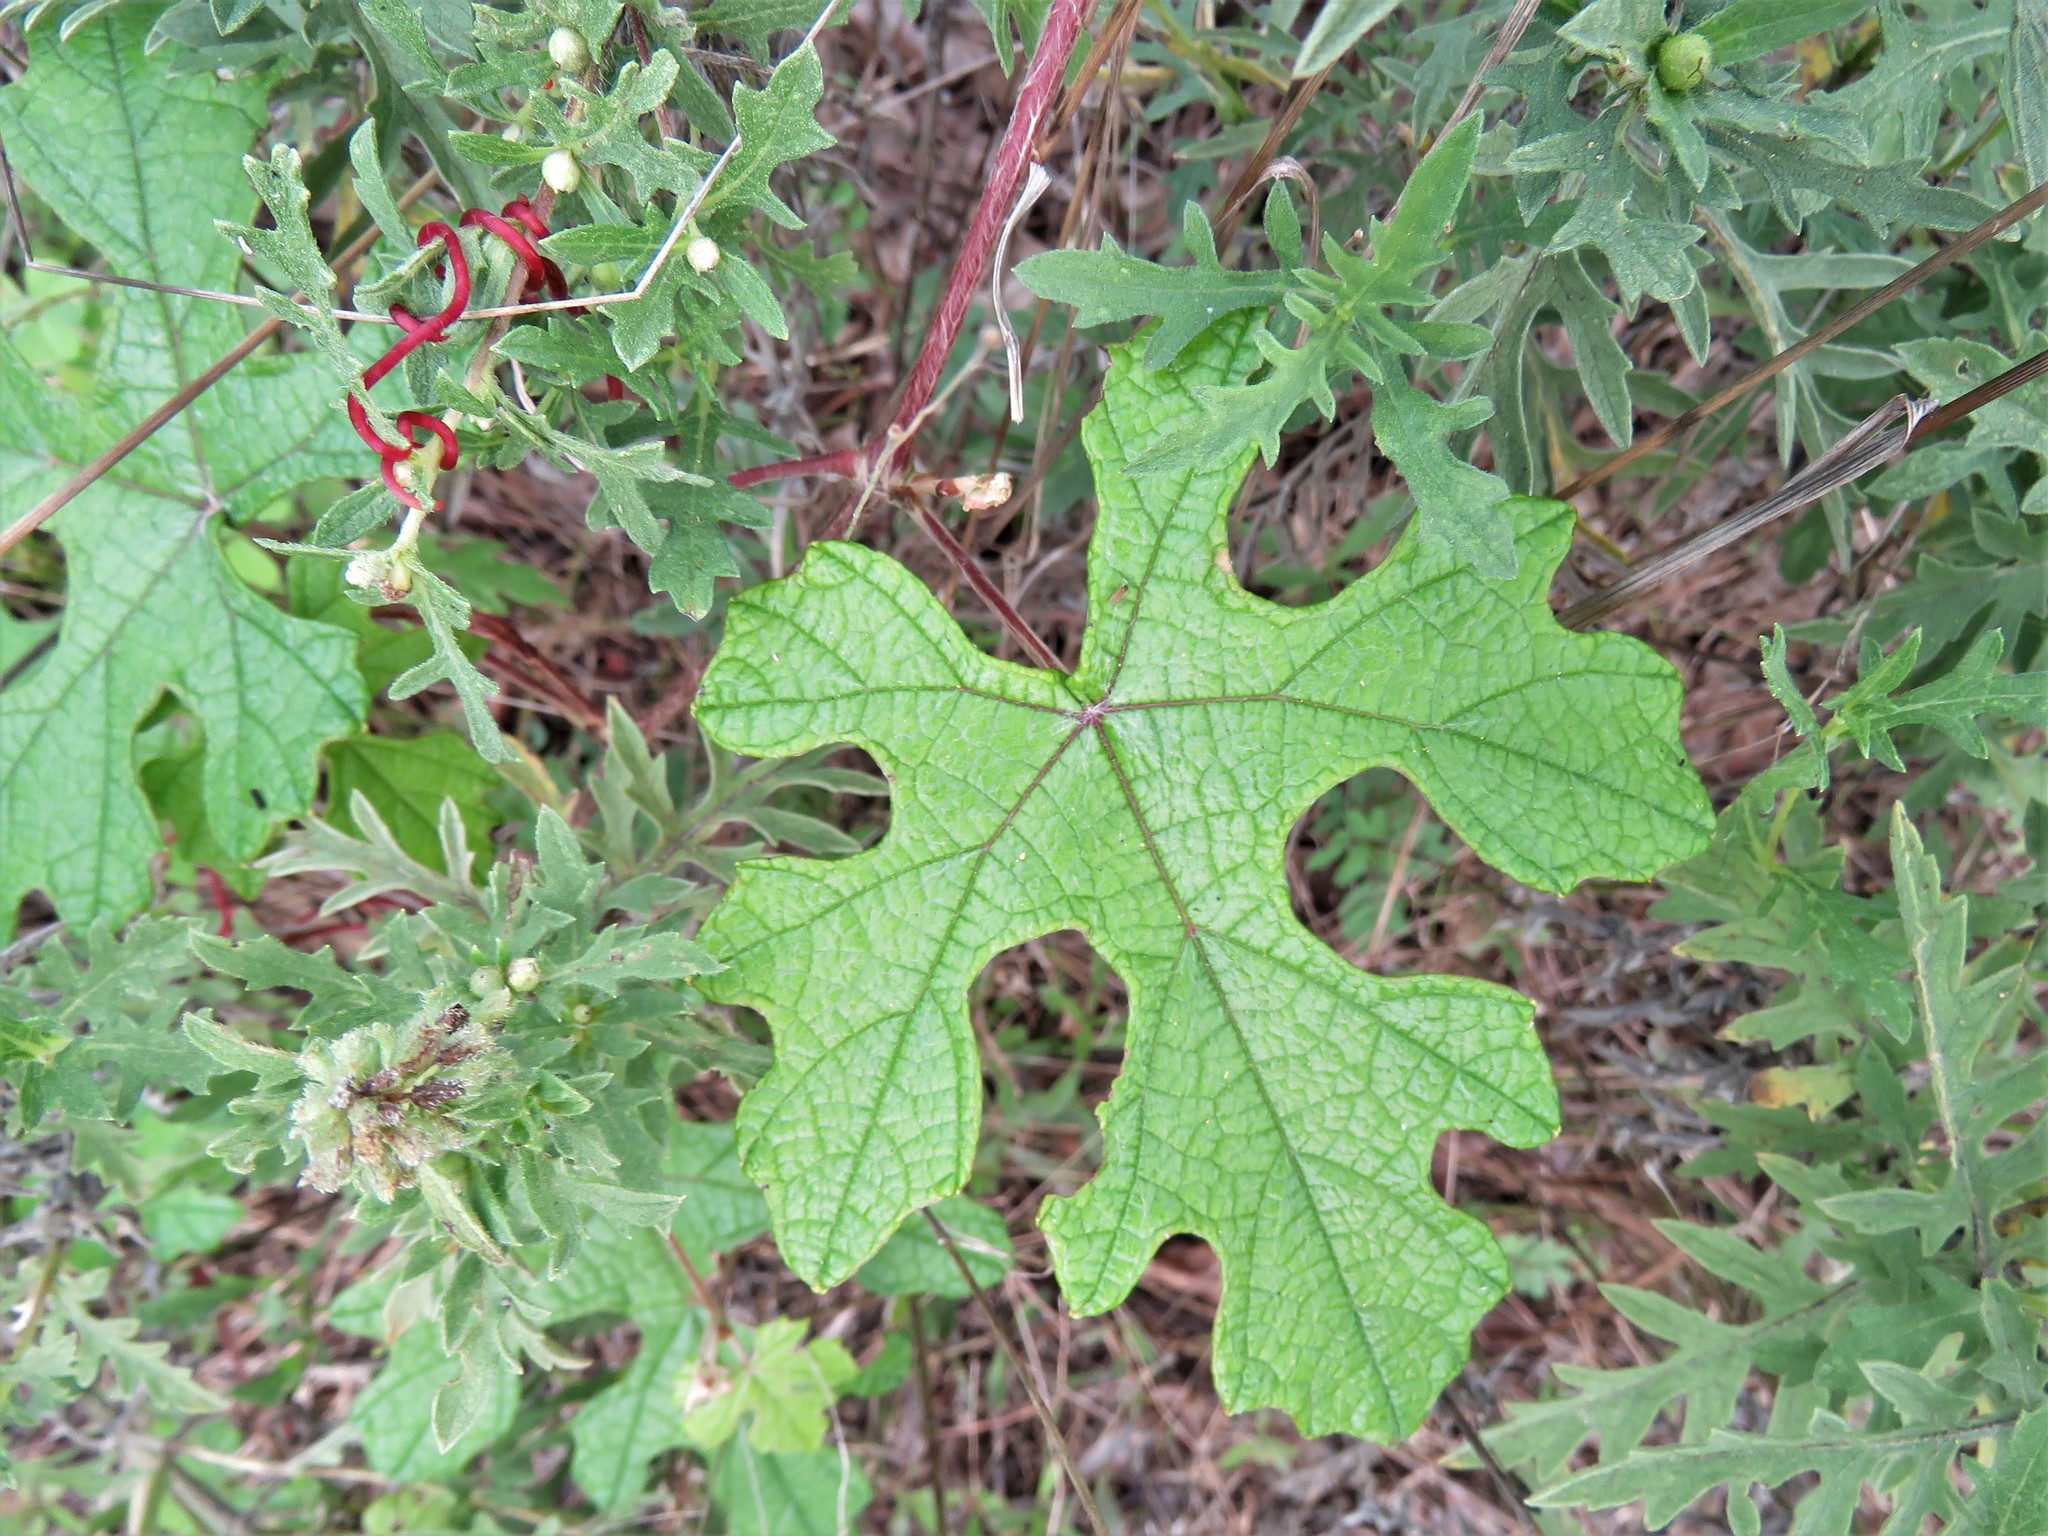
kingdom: Plantae
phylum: Tracheophyta
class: Magnoliopsida
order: Vitales
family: Vitaceae
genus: Vitis
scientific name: Vitis mustangensis
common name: Mustang grape
